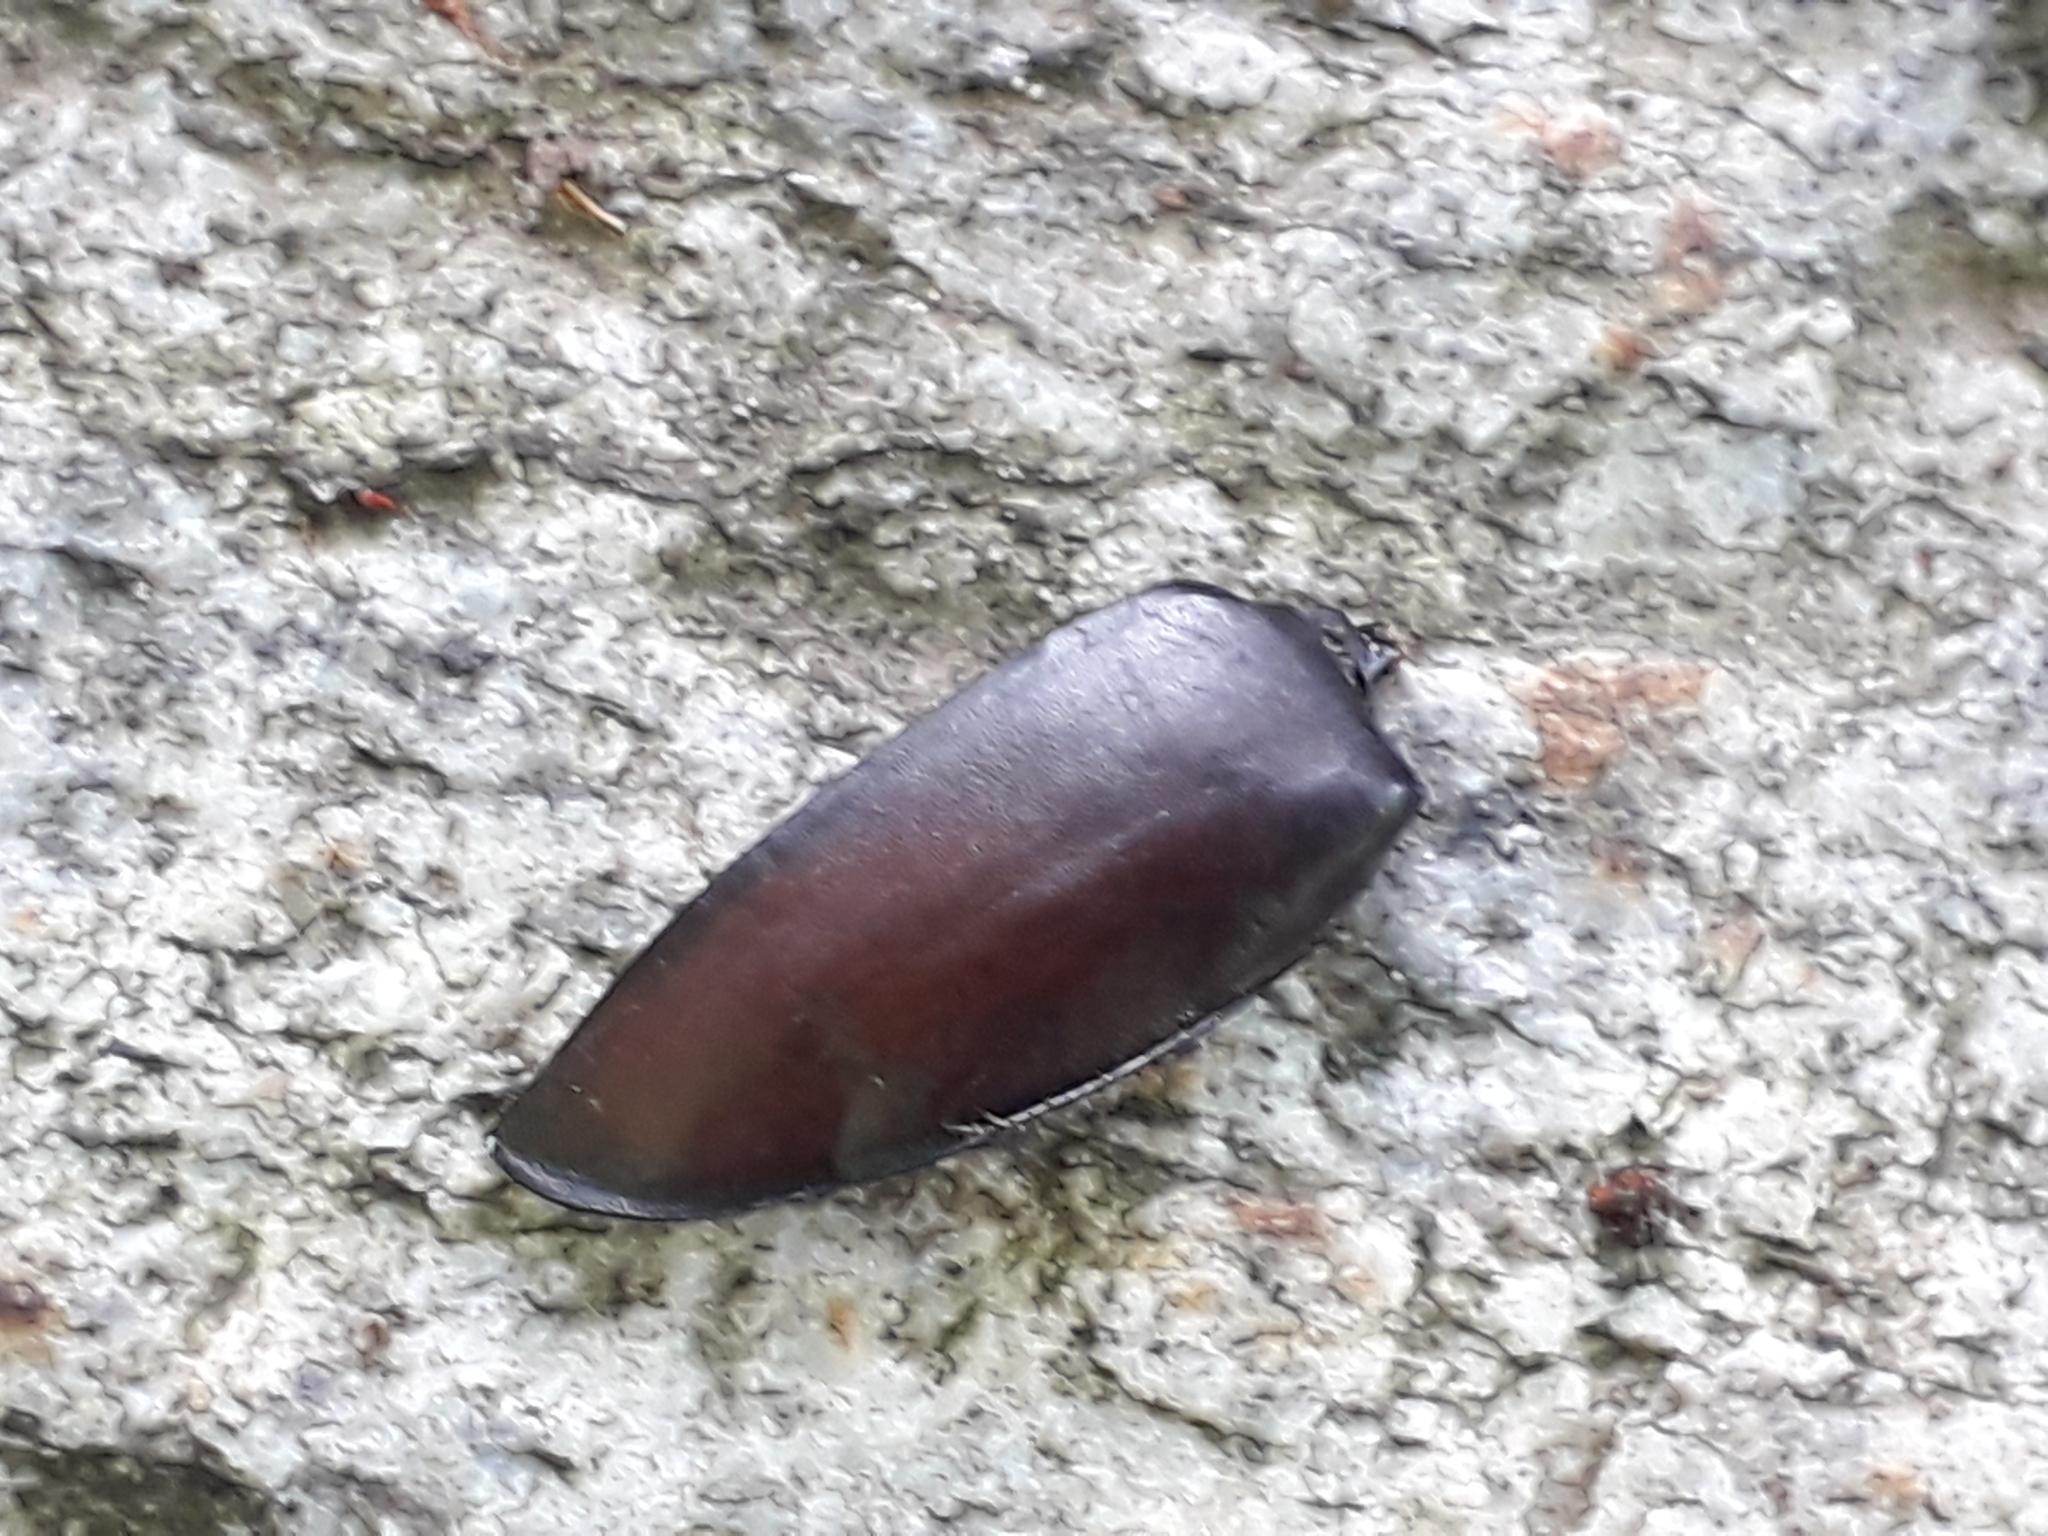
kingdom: Animalia
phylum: Arthropoda
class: Insecta
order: Coleoptera
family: Lucanidae
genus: Lucanus
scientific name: Lucanus cervus
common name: Stag beetle
